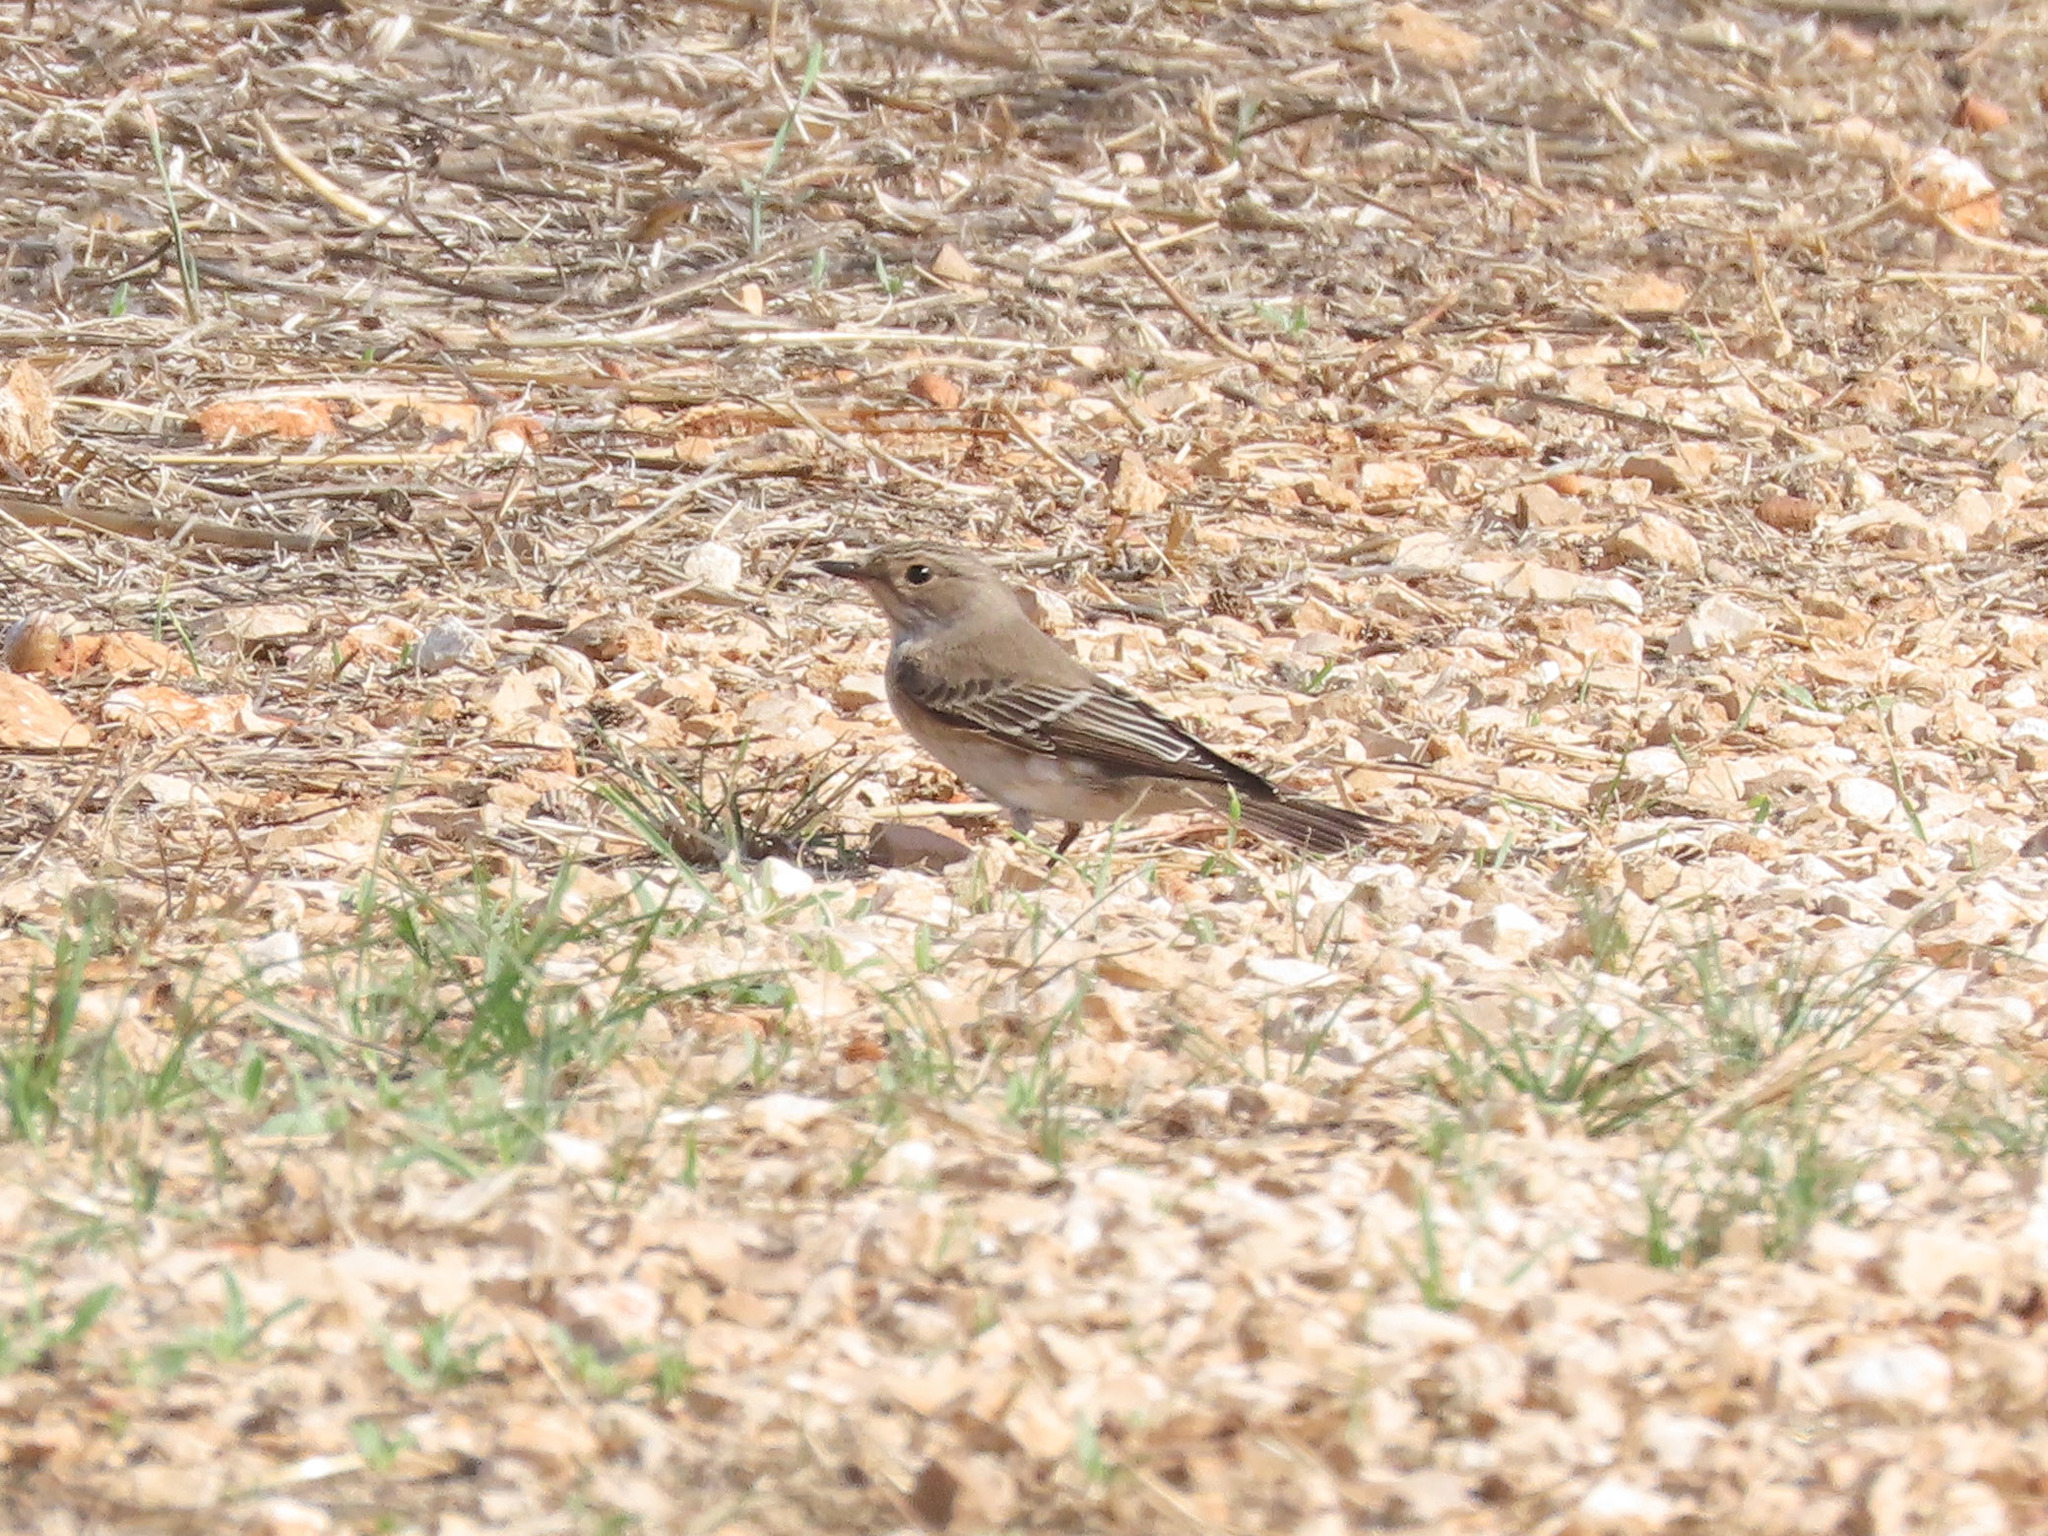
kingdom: Animalia
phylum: Chordata
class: Aves
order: Passeriformes
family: Muscicapidae
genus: Muscicapa
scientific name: Muscicapa striata
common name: Spotted flycatcher
